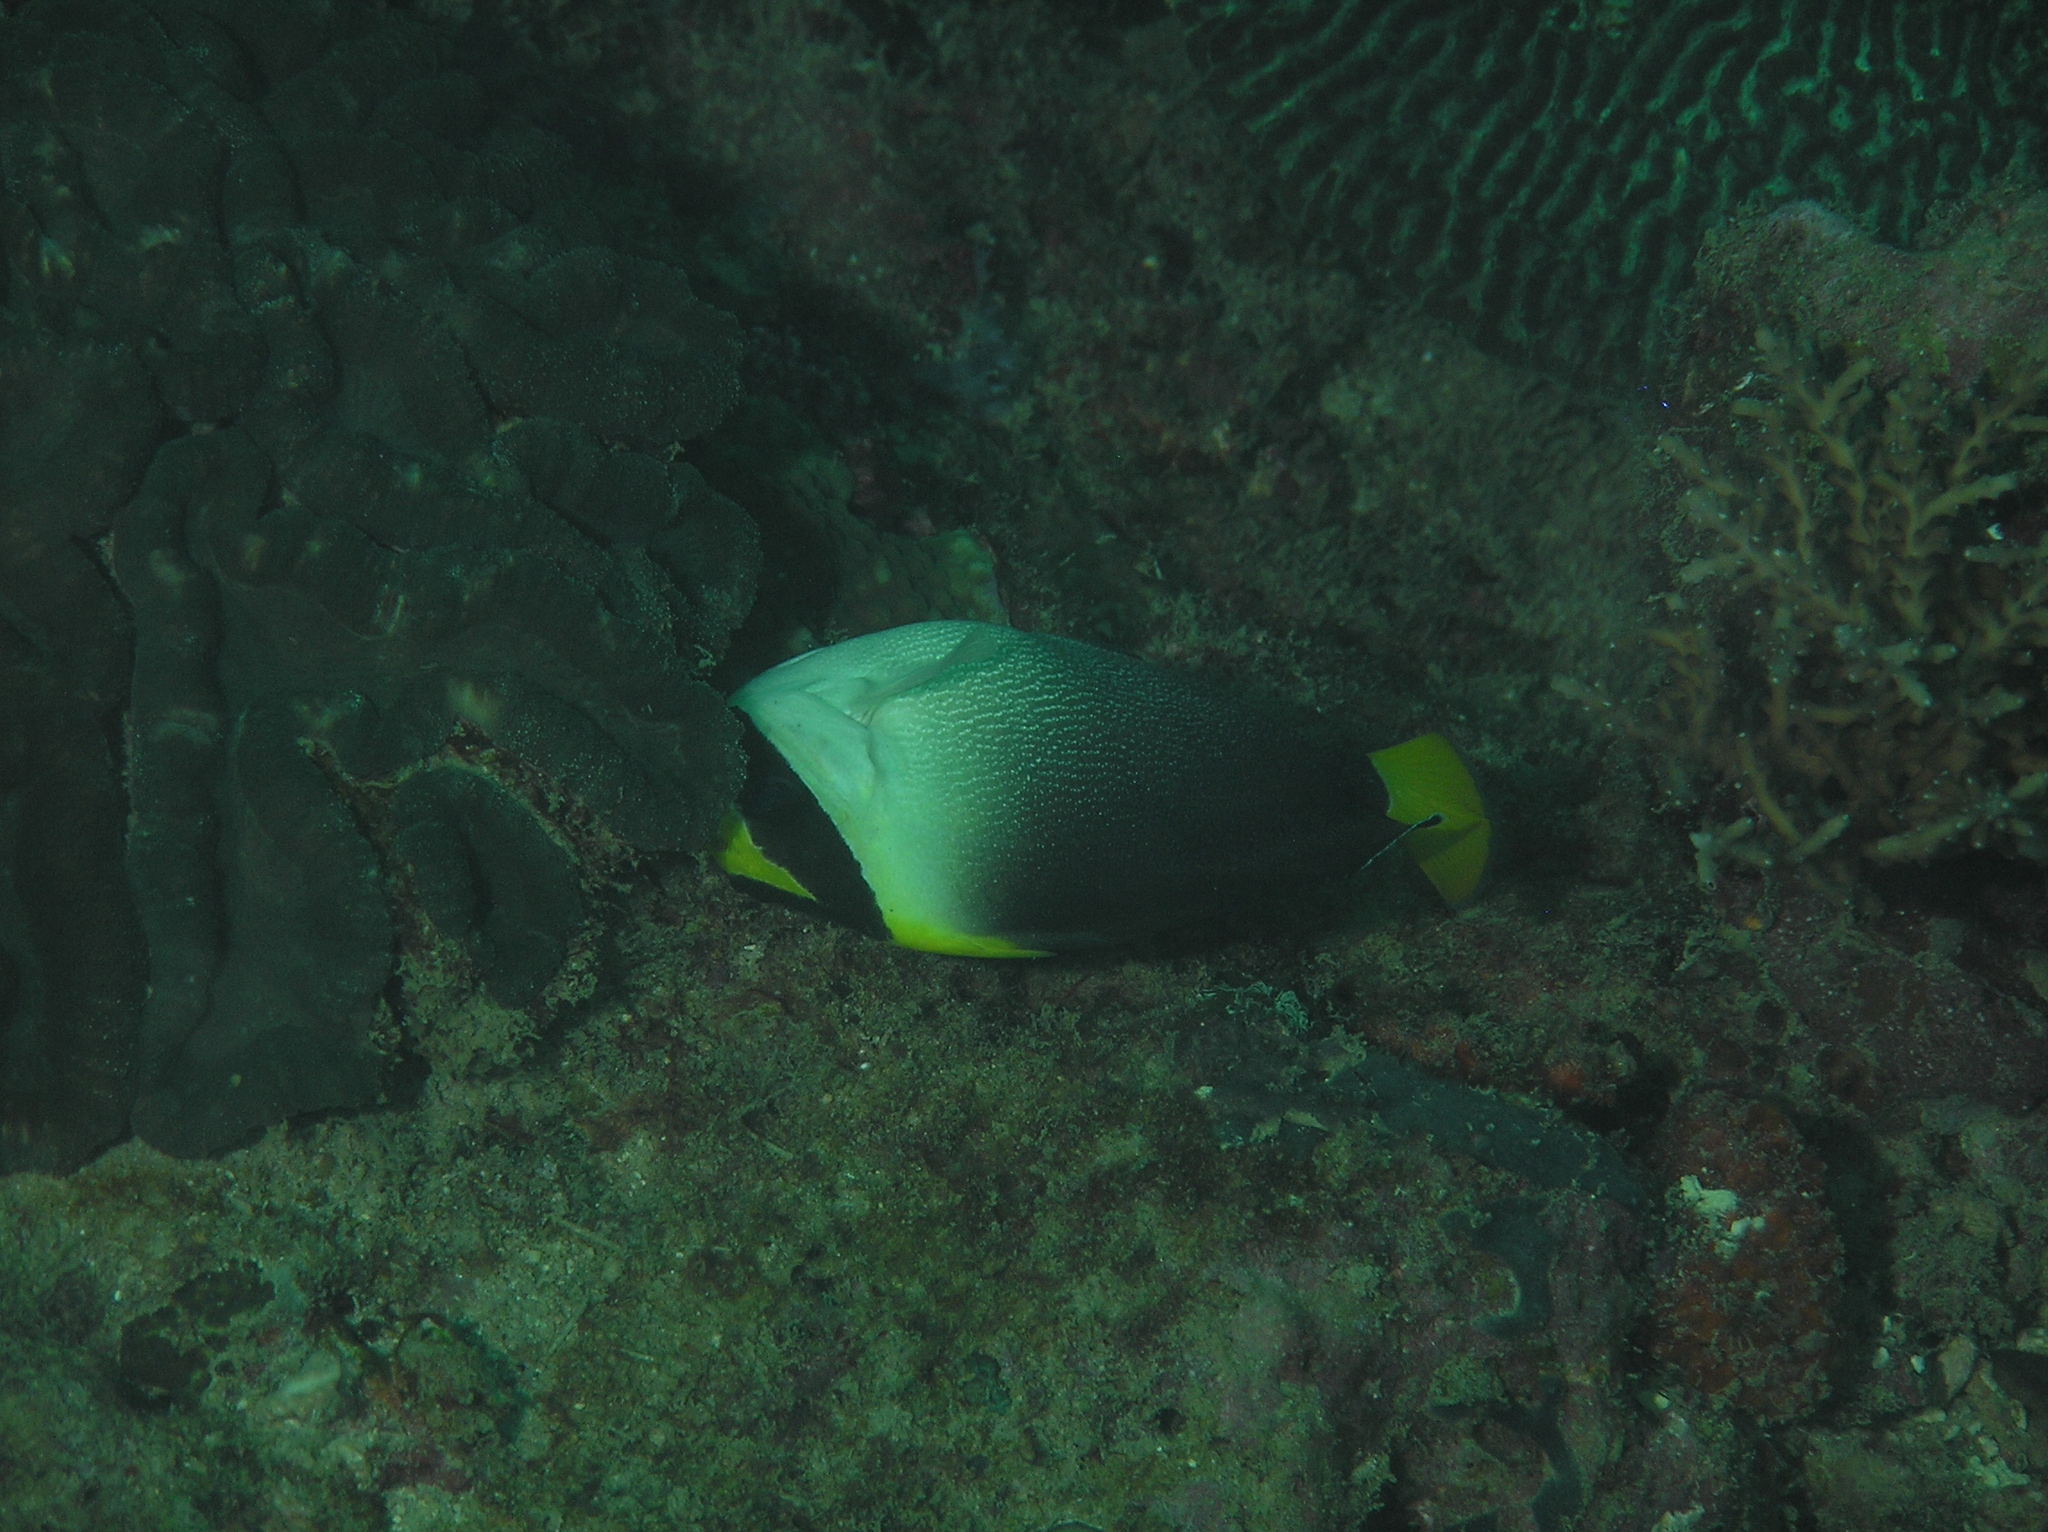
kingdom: Animalia
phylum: Chordata
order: Perciformes
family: Pomacanthidae
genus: Chaetodontoplus
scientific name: Chaetodontoplus mesoleucus
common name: Vermiculated angelfish
